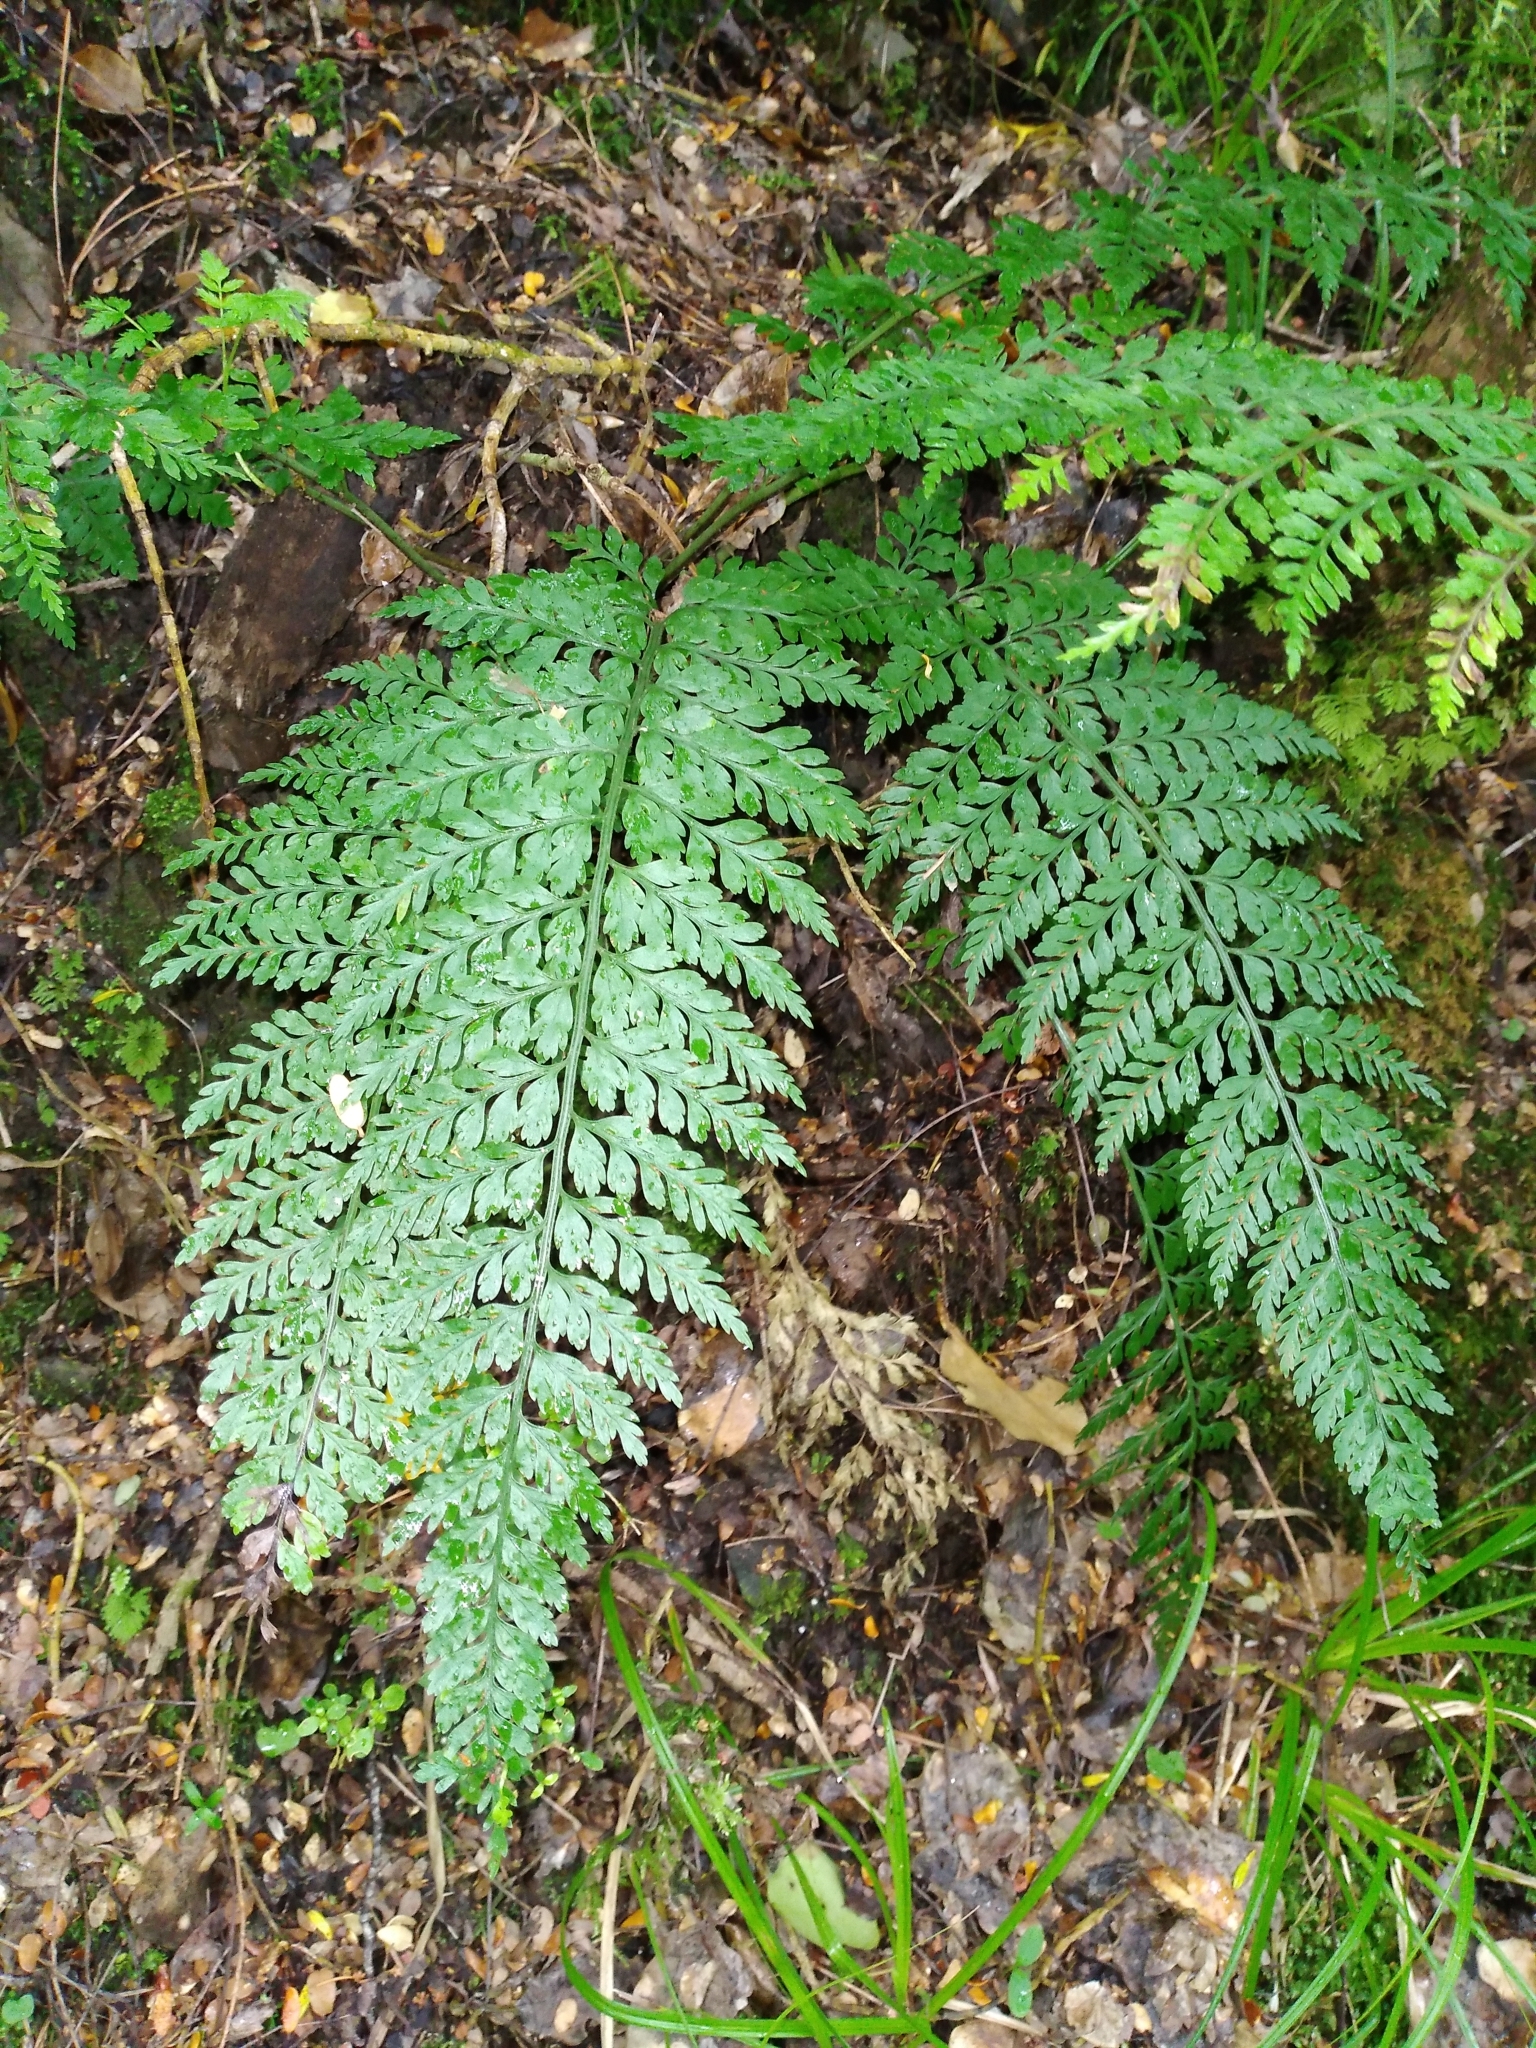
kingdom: Plantae
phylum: Tracheophyta
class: Polypodiopsida
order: Polypodiales
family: Aspleniaceae
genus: Asplenium
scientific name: Asplenium
